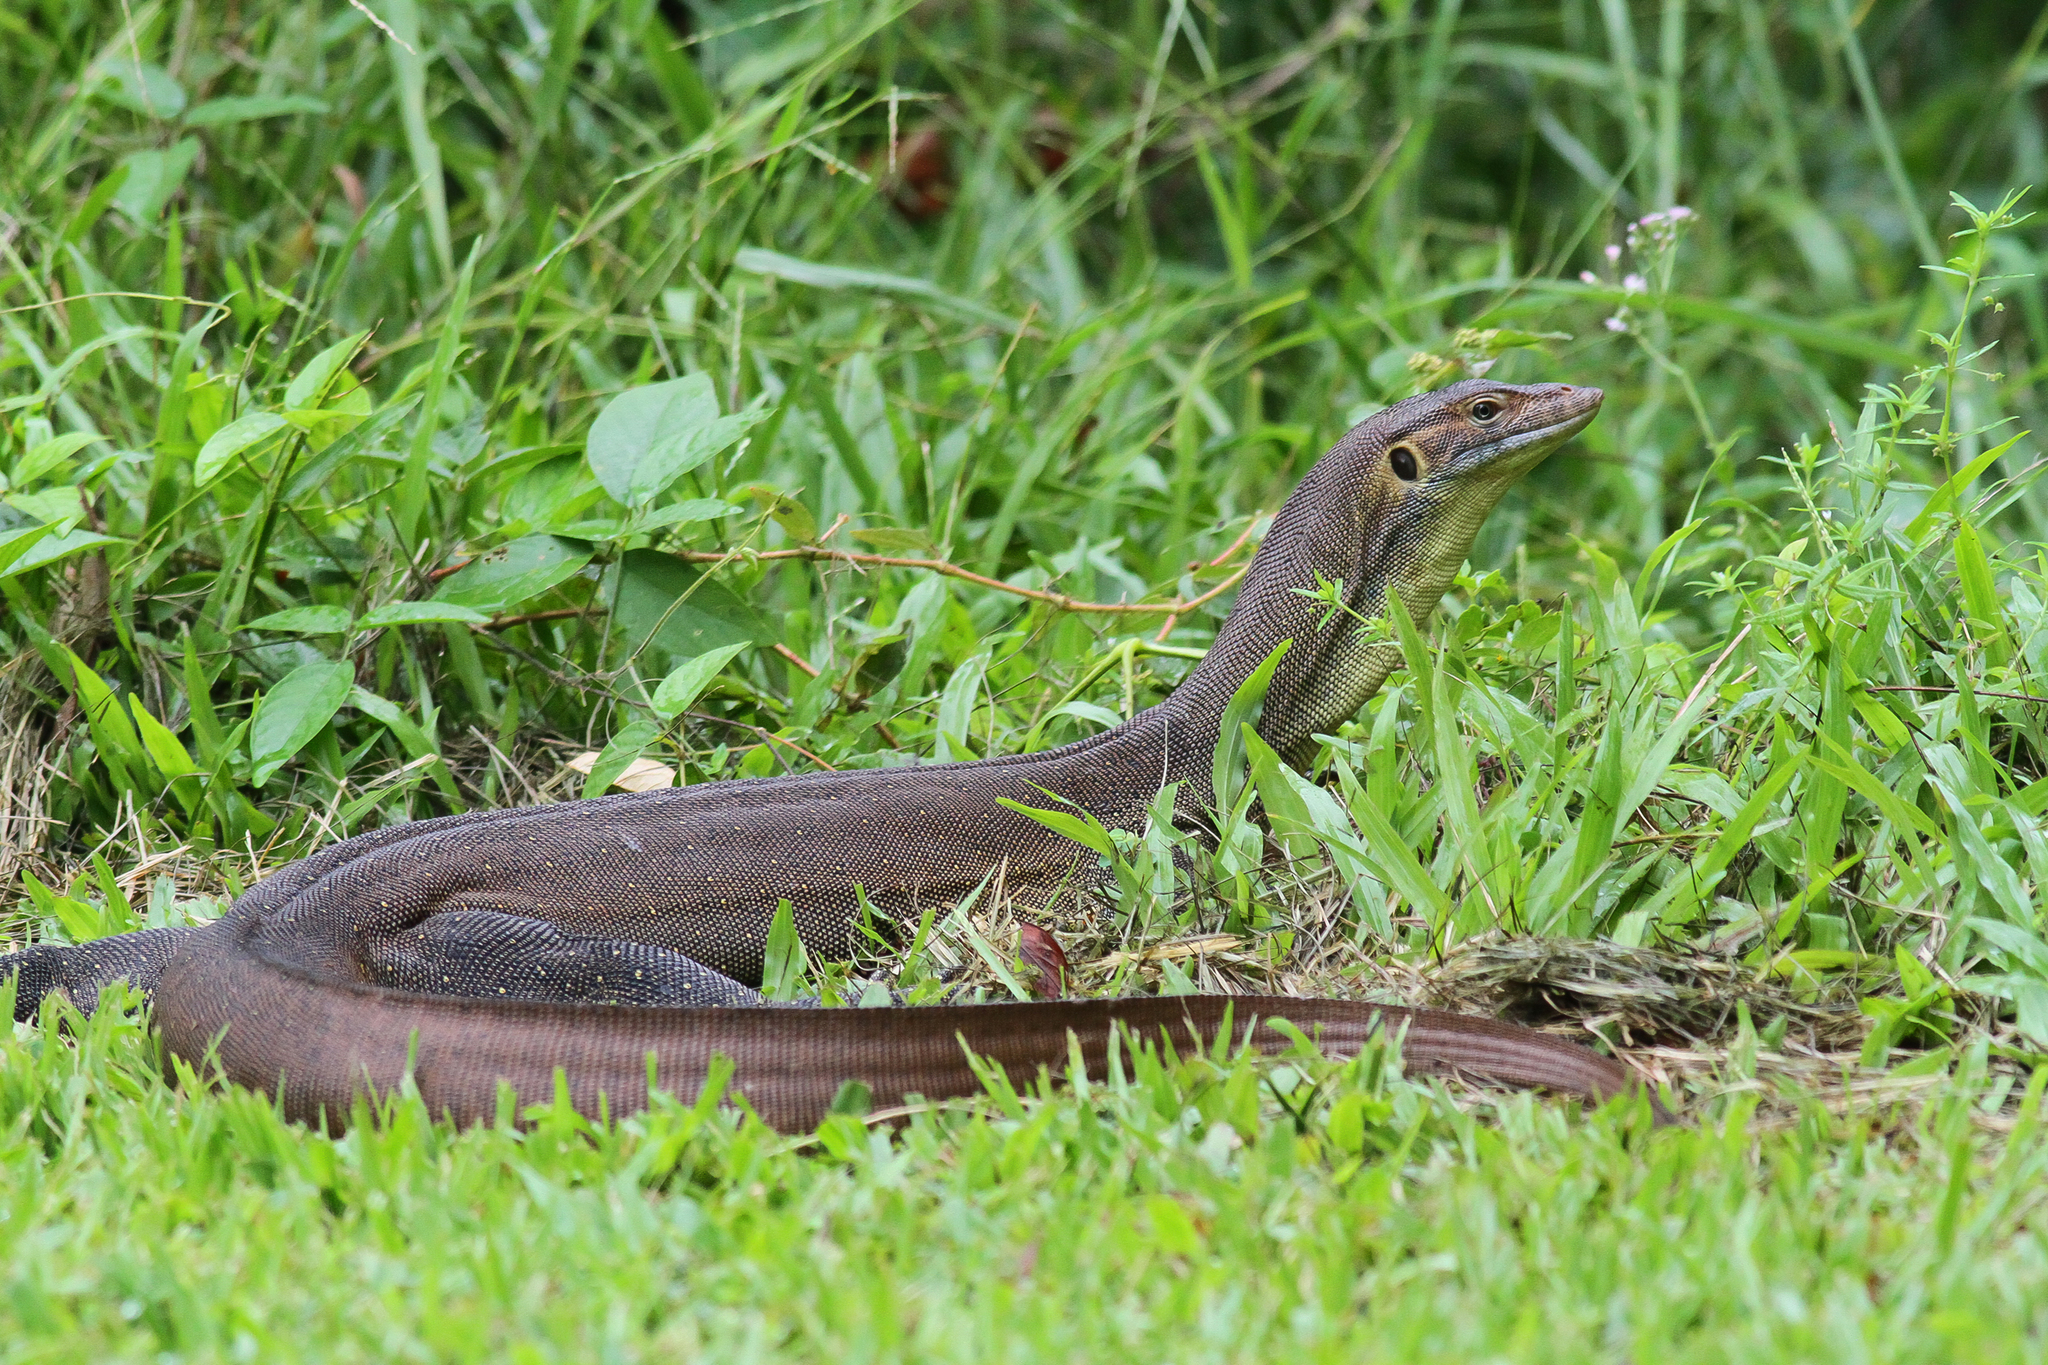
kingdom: Animalia
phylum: Chordata
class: Squamata
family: Varanidae
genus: Varanus
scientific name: Varanus mertensi
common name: Mertens's water monitor
